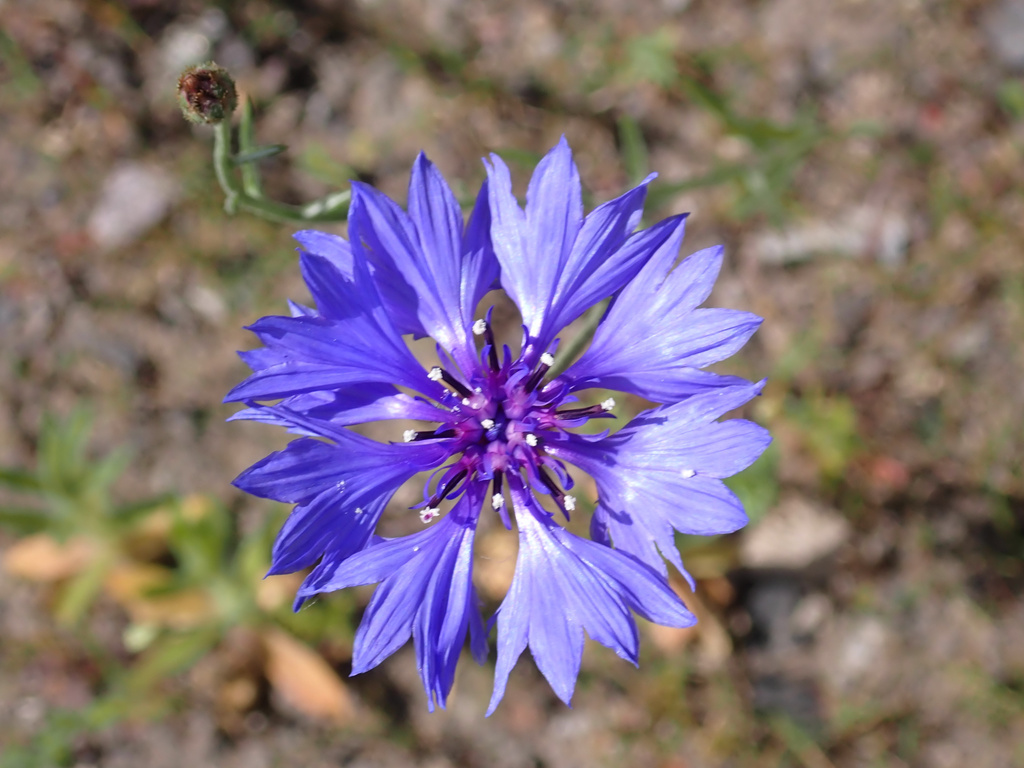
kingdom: Plantae
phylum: Tracheophyta
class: Magnoliopsida
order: Asterales
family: Asteraceae
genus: Centaurea
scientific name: Centaurea cyanus
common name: Cornflower
